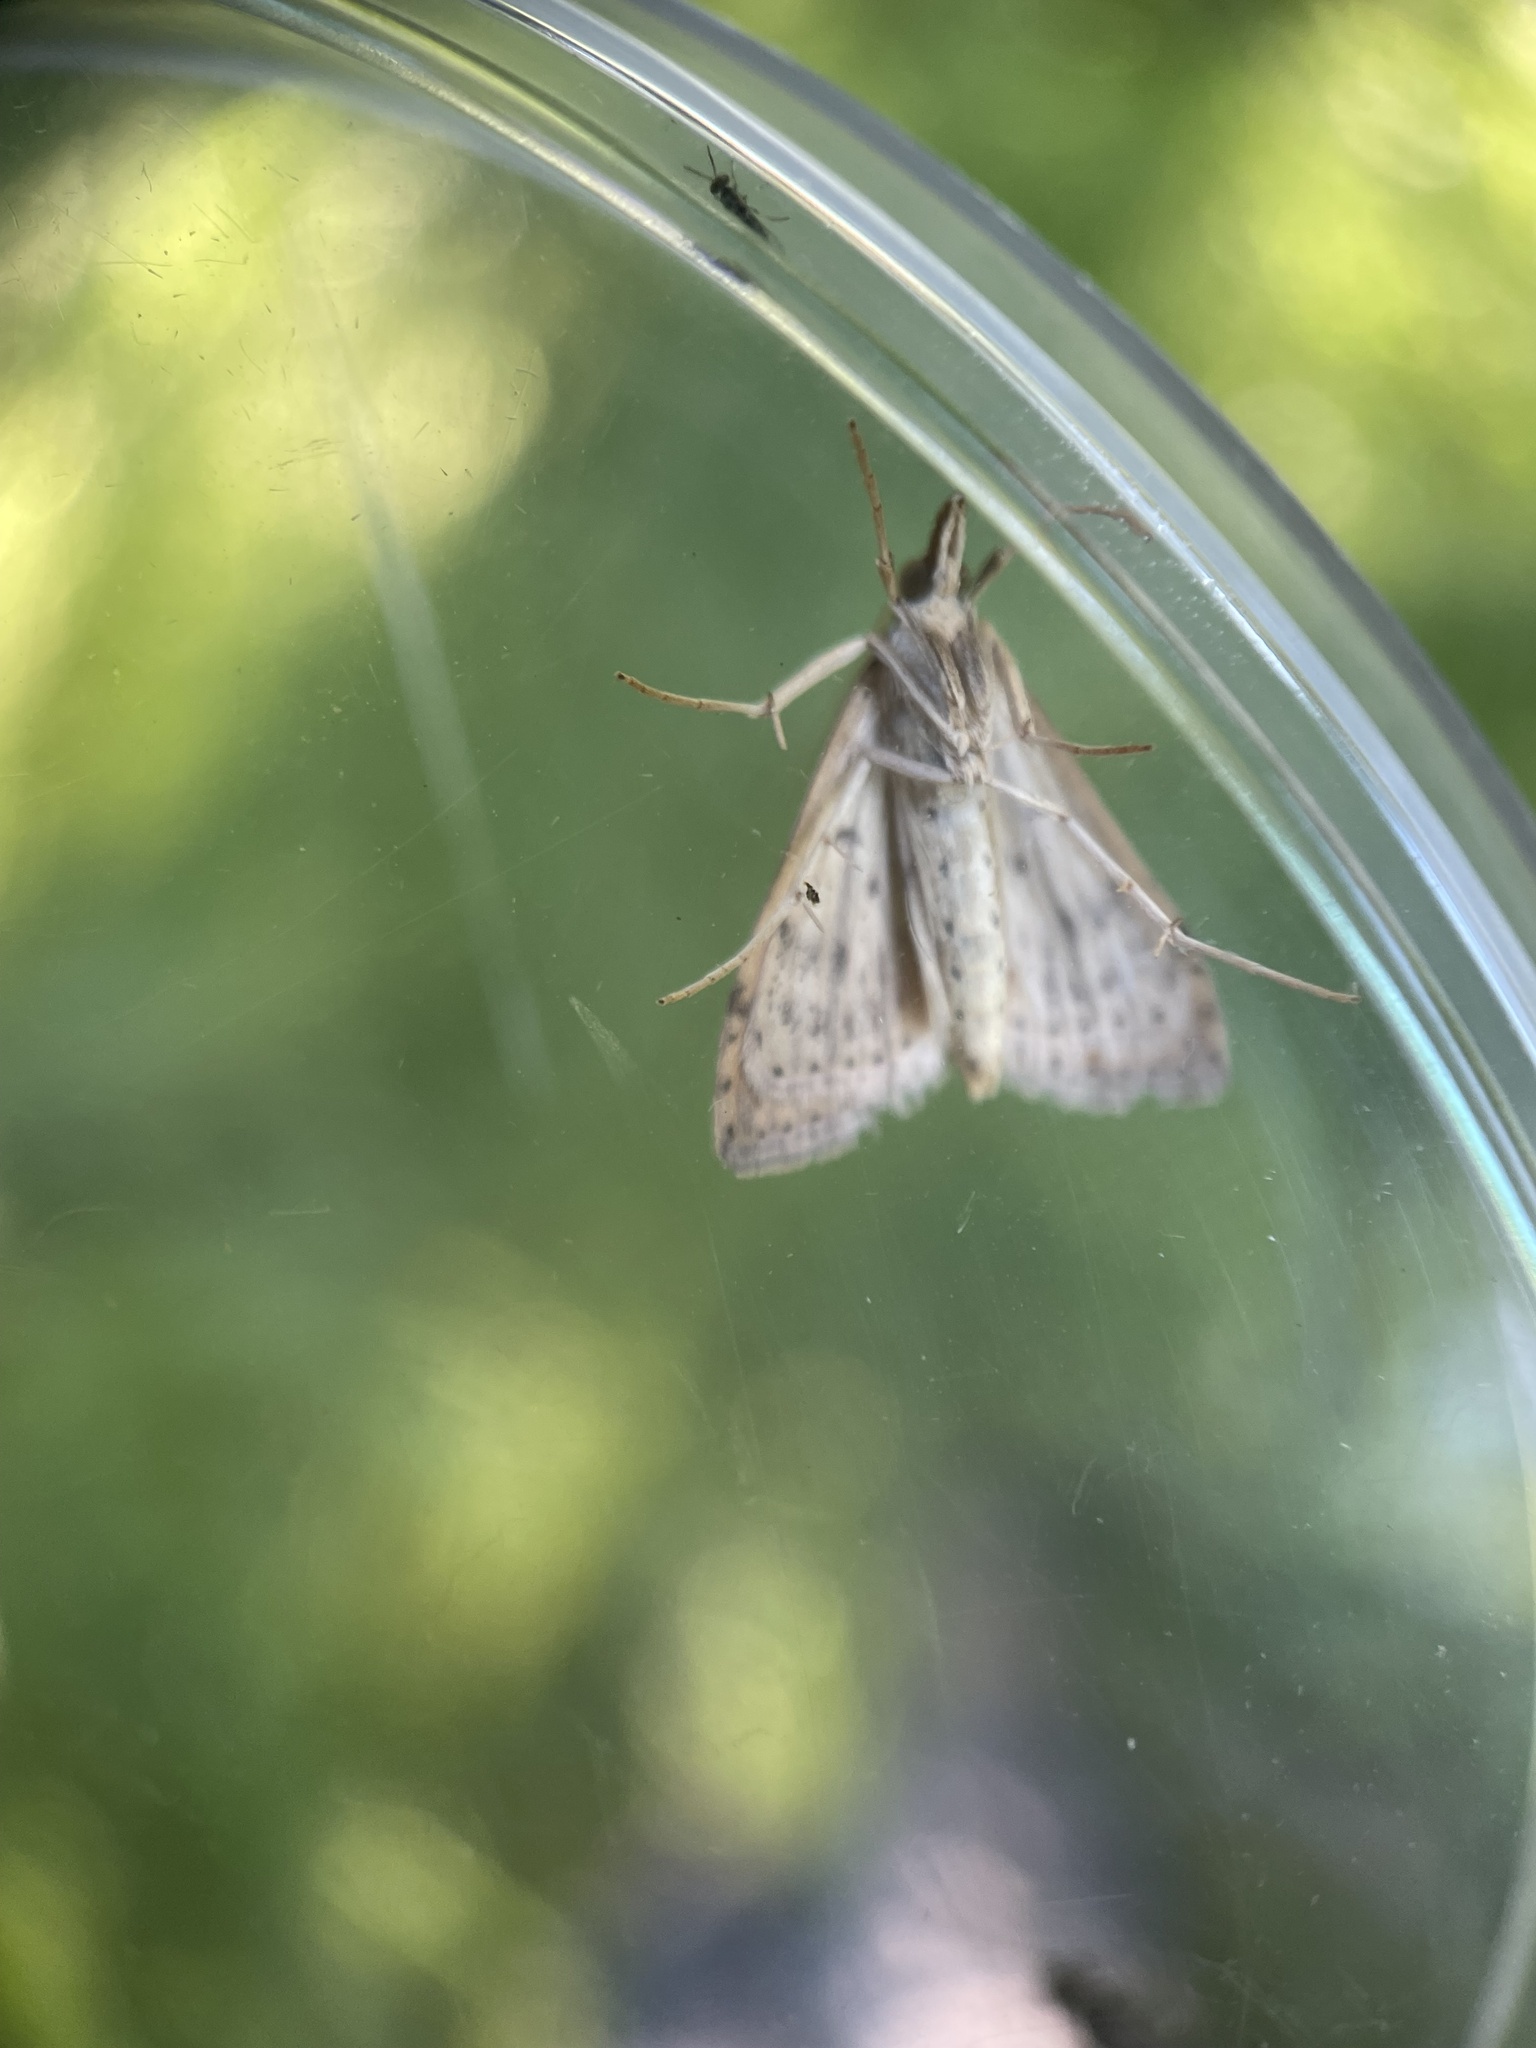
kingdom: Animalia
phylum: Arthropoda
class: Insecta
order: Lepidoptera
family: Crambidae
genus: Udea
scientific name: Udea rubigalis
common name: Celery leaftier moth
